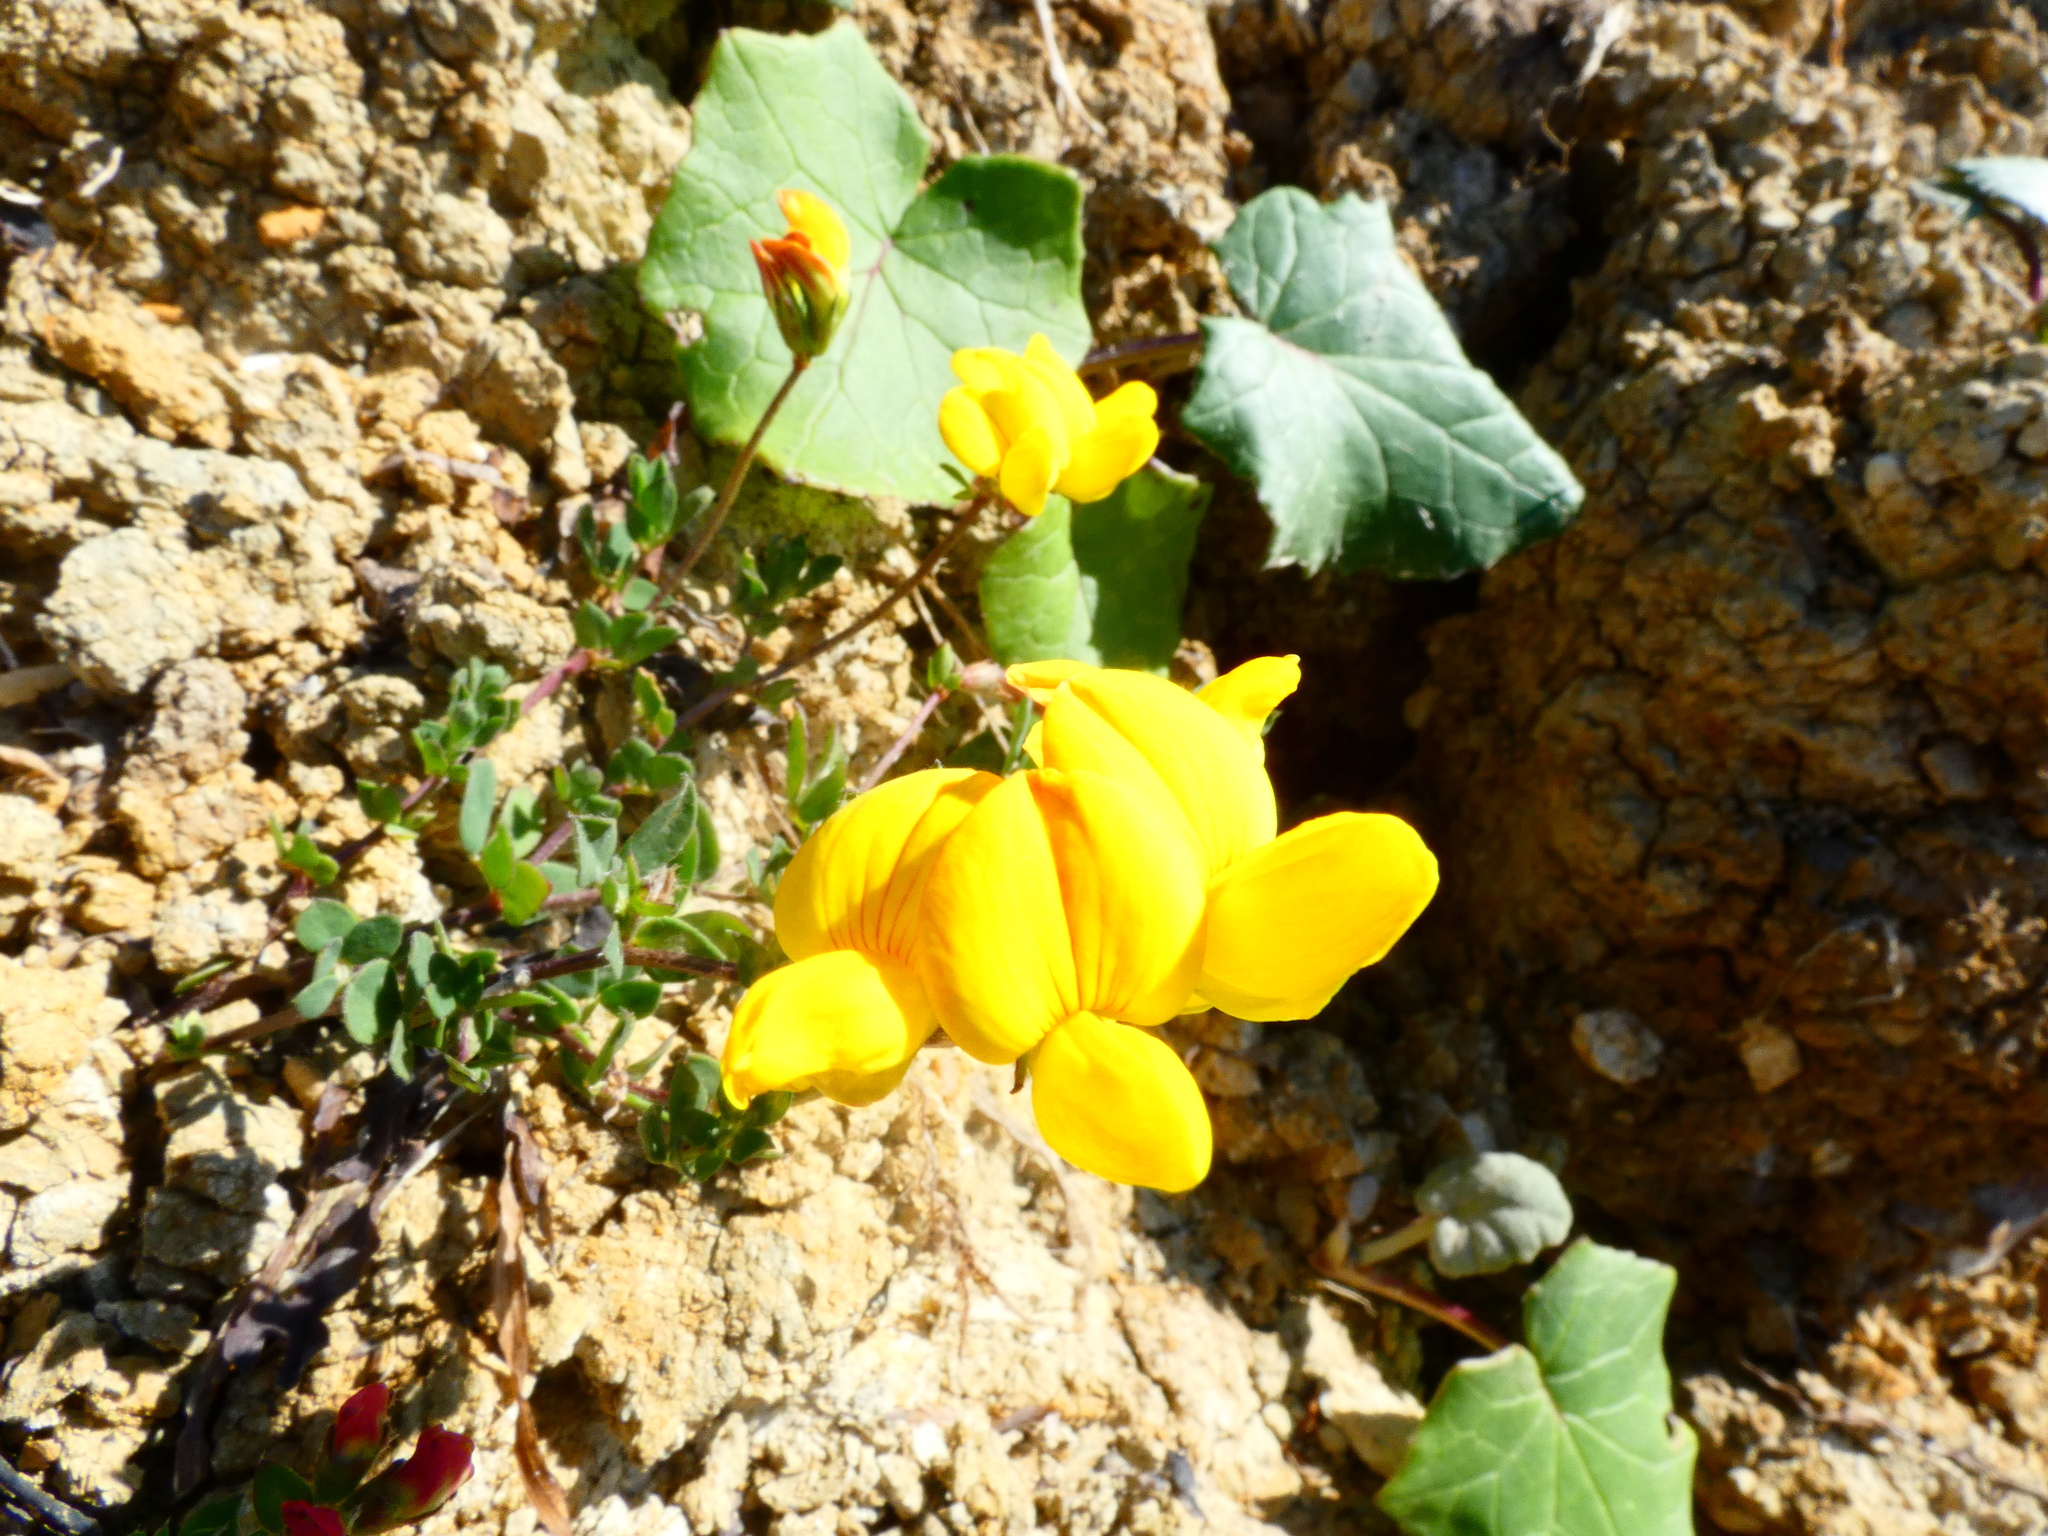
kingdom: Plantae
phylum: Tracheophyta
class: Magnoliopsida
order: Fabales
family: Fabaceae
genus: Lotus
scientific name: Lotus corniculatus
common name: Common bird's-foot-trefoil
